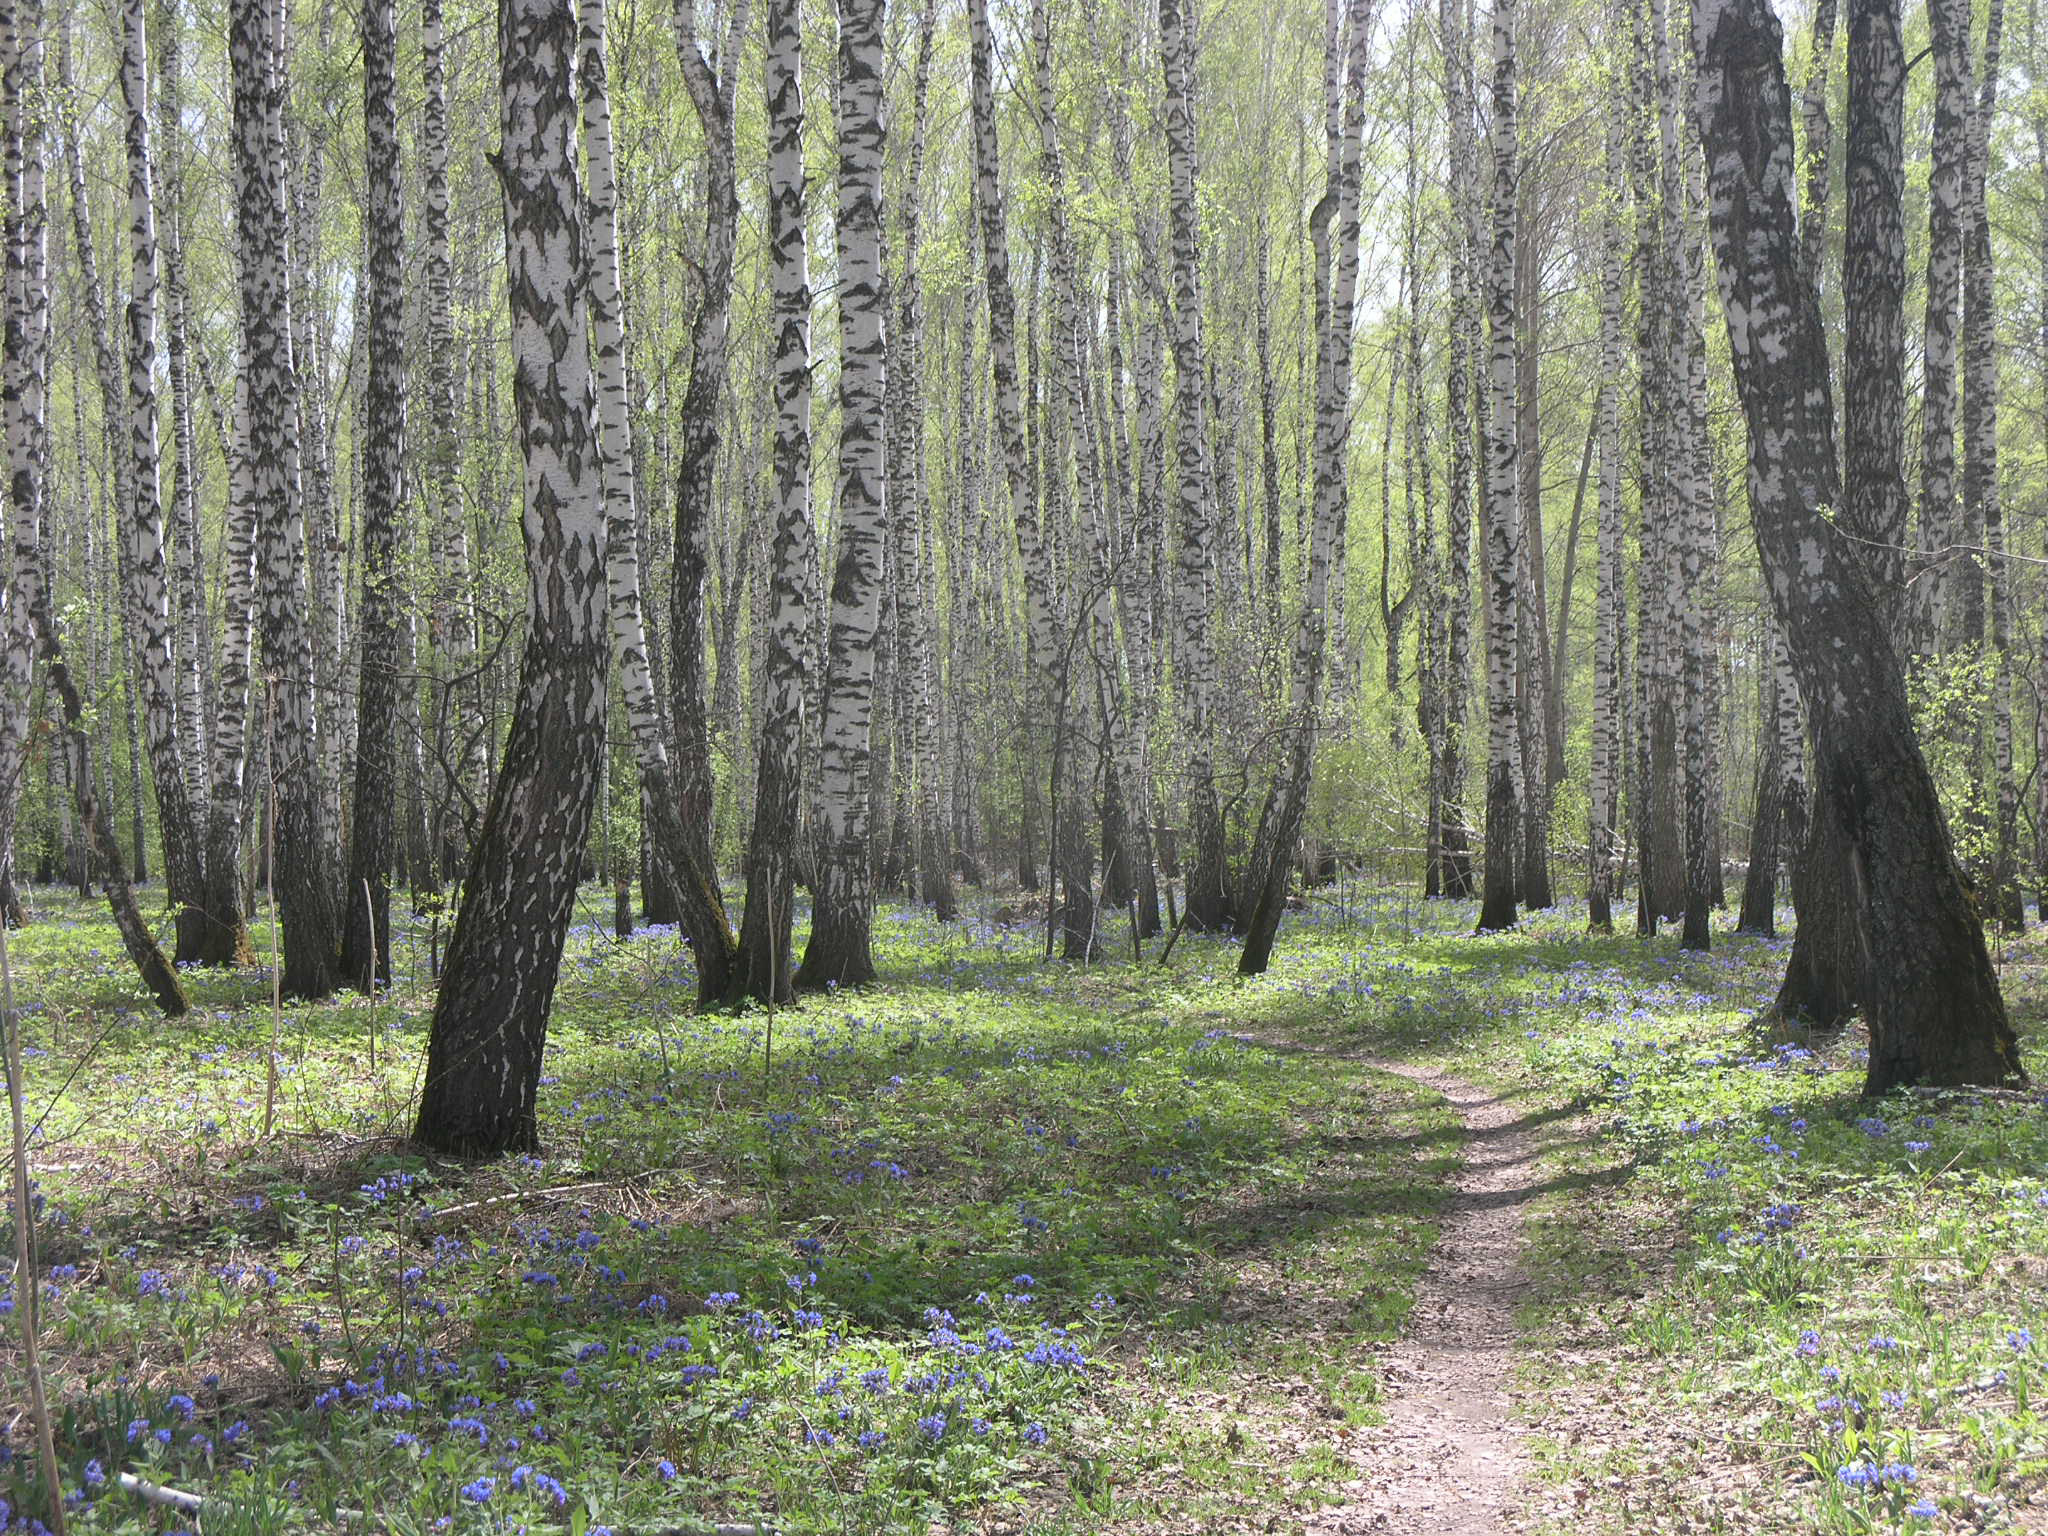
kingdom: Plantae
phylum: Tracheophyta
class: Magnoliopsida
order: Fagales
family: Betulaceae
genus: Betula
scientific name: Betula pendula
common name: Silver birch
